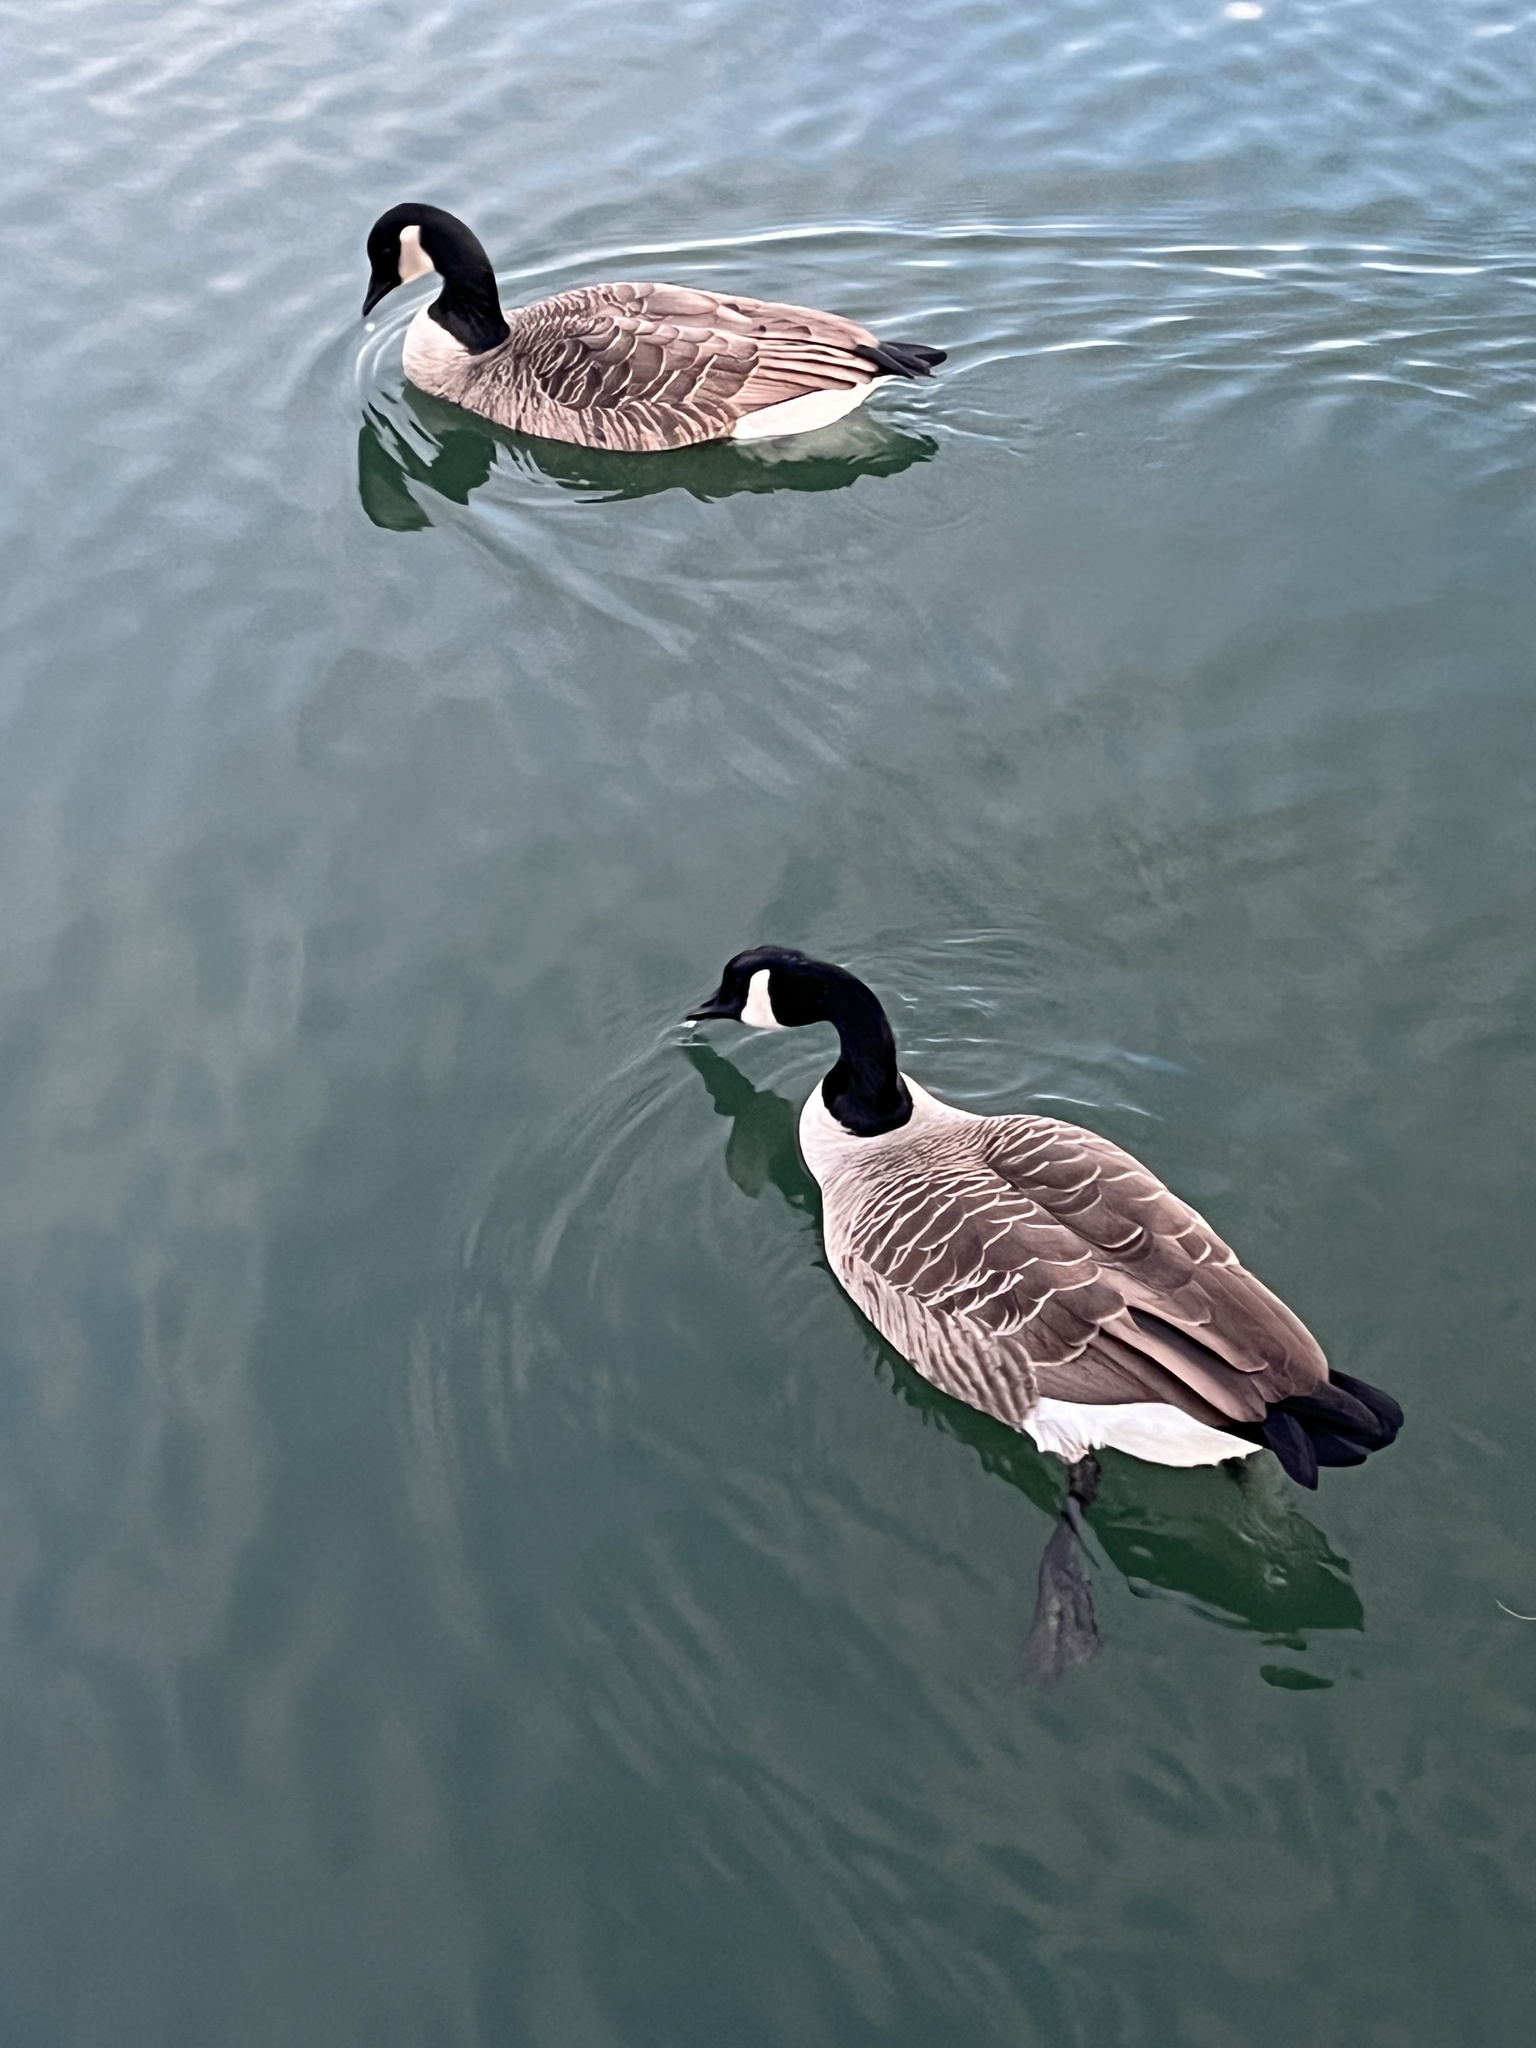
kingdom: Animalia
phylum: Chordata
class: Aves
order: Anseriformes
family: Anatidae
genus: Branta
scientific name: Branta canadensis
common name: Canada goose
